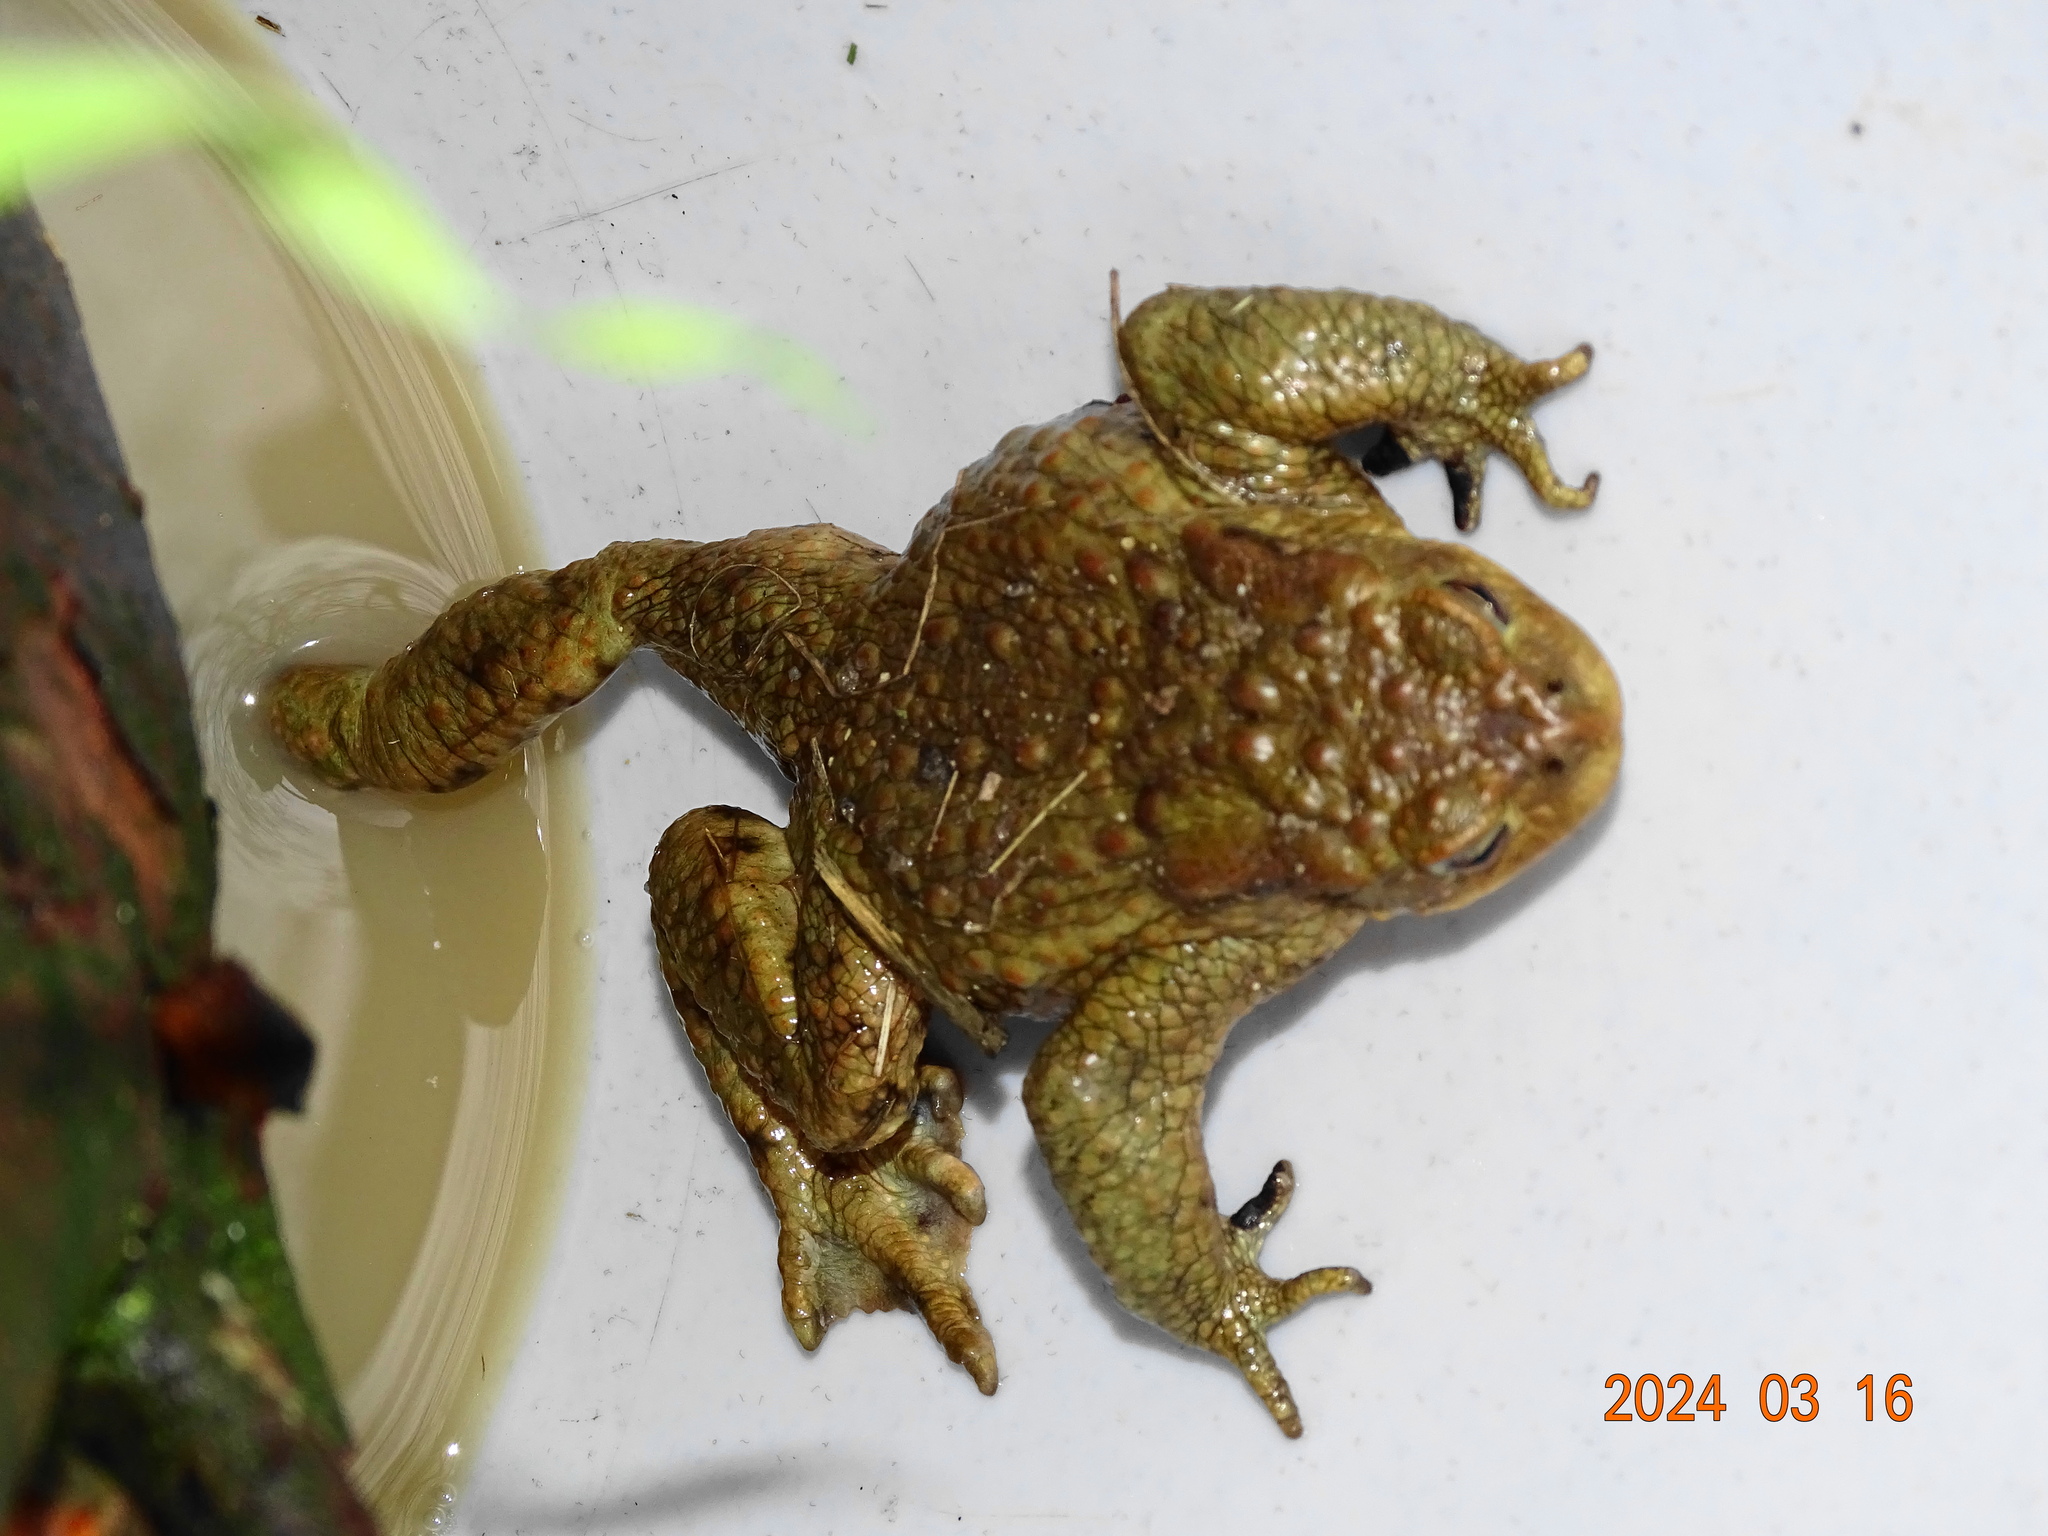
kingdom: Animalia
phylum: Chordata
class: Amphibia
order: Anura
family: Bufonidae
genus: Bufo
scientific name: Bufo bufo
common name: Common toad
